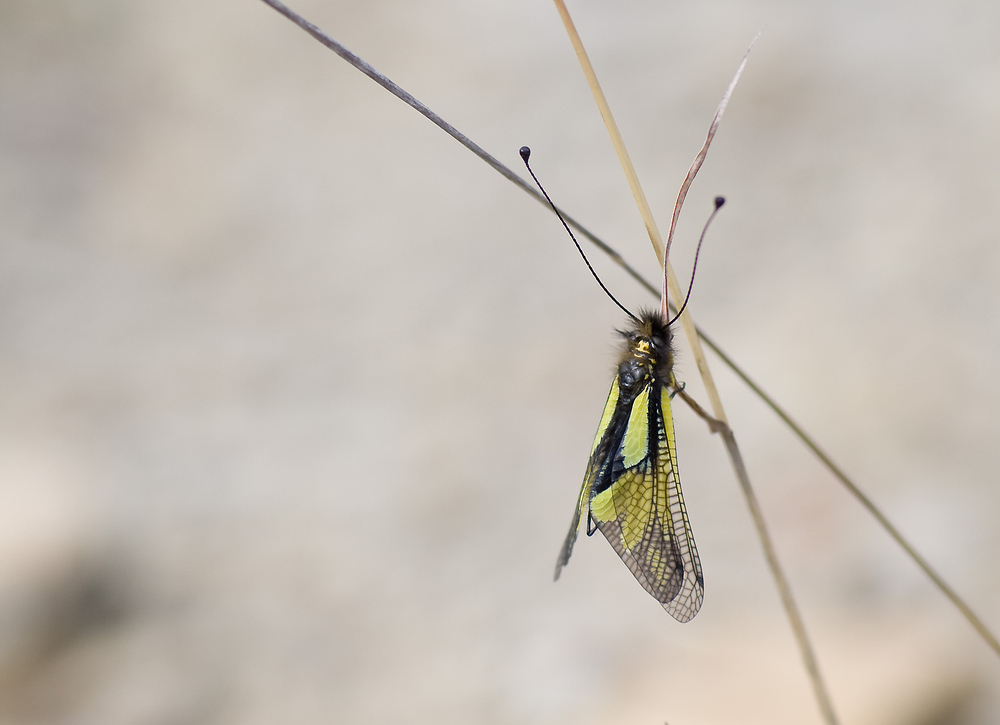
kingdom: Animalia
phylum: Arthropoda
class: Insecta
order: Neuroptera
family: Ascalaphidae
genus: Libelloides
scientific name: Libelloides coccajus
